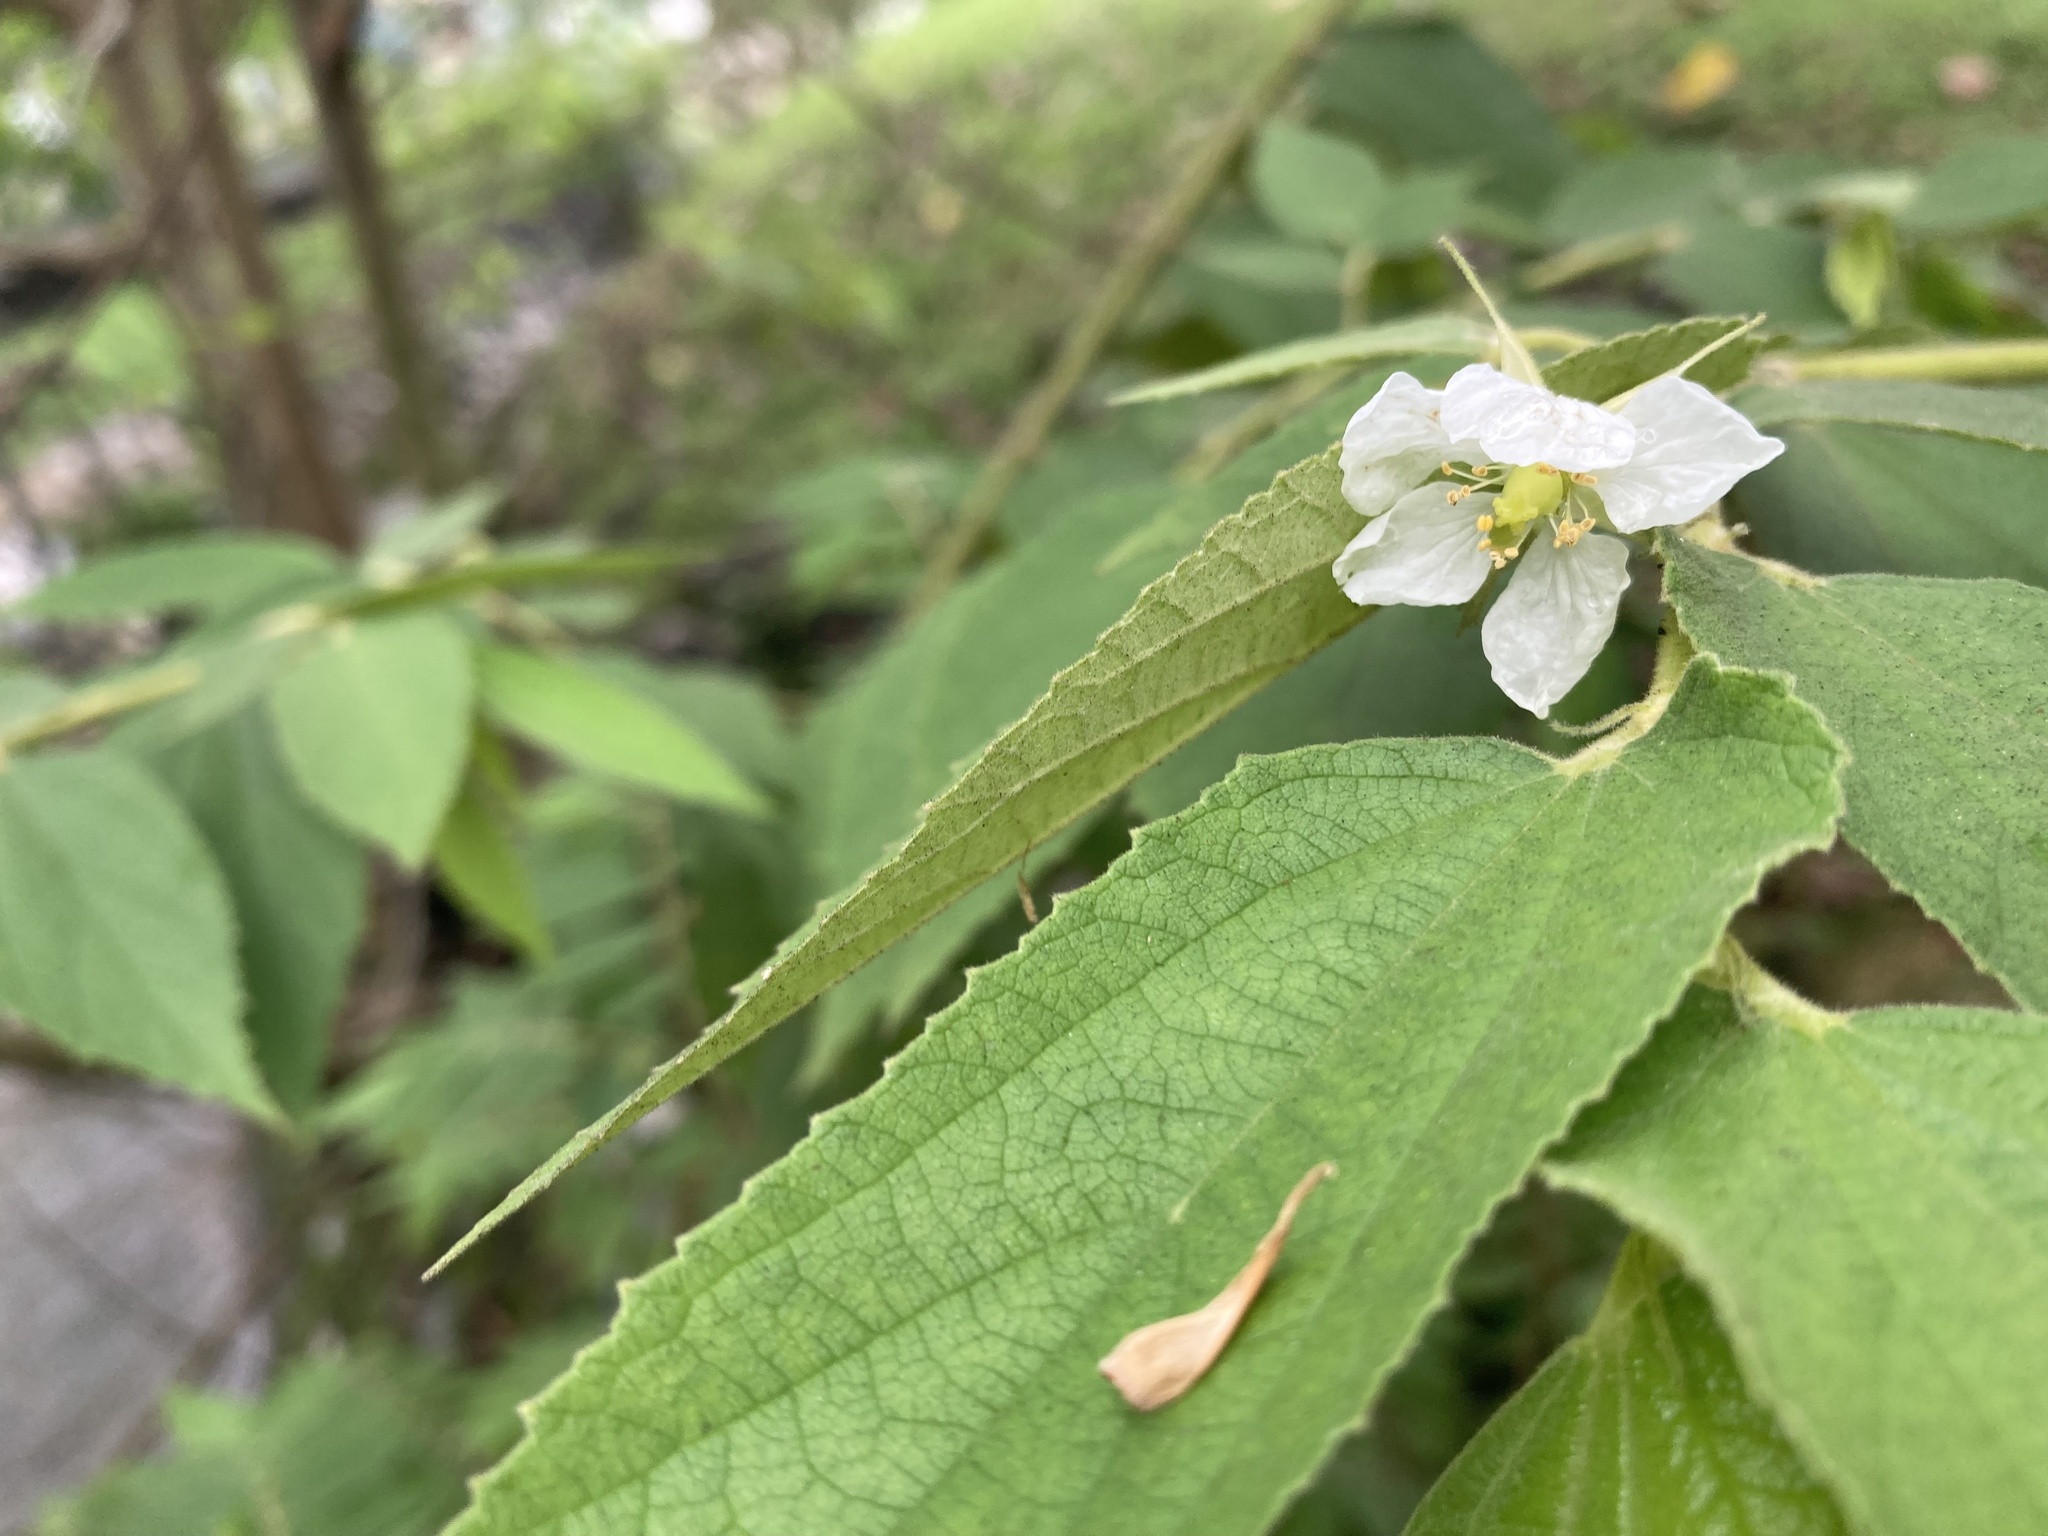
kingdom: Plantae
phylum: Tracheophyta
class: Magnoliopsida
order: Malvales
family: Muntingiaceae
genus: Muntingia
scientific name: Muntingia calabura
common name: Strawberrytree
